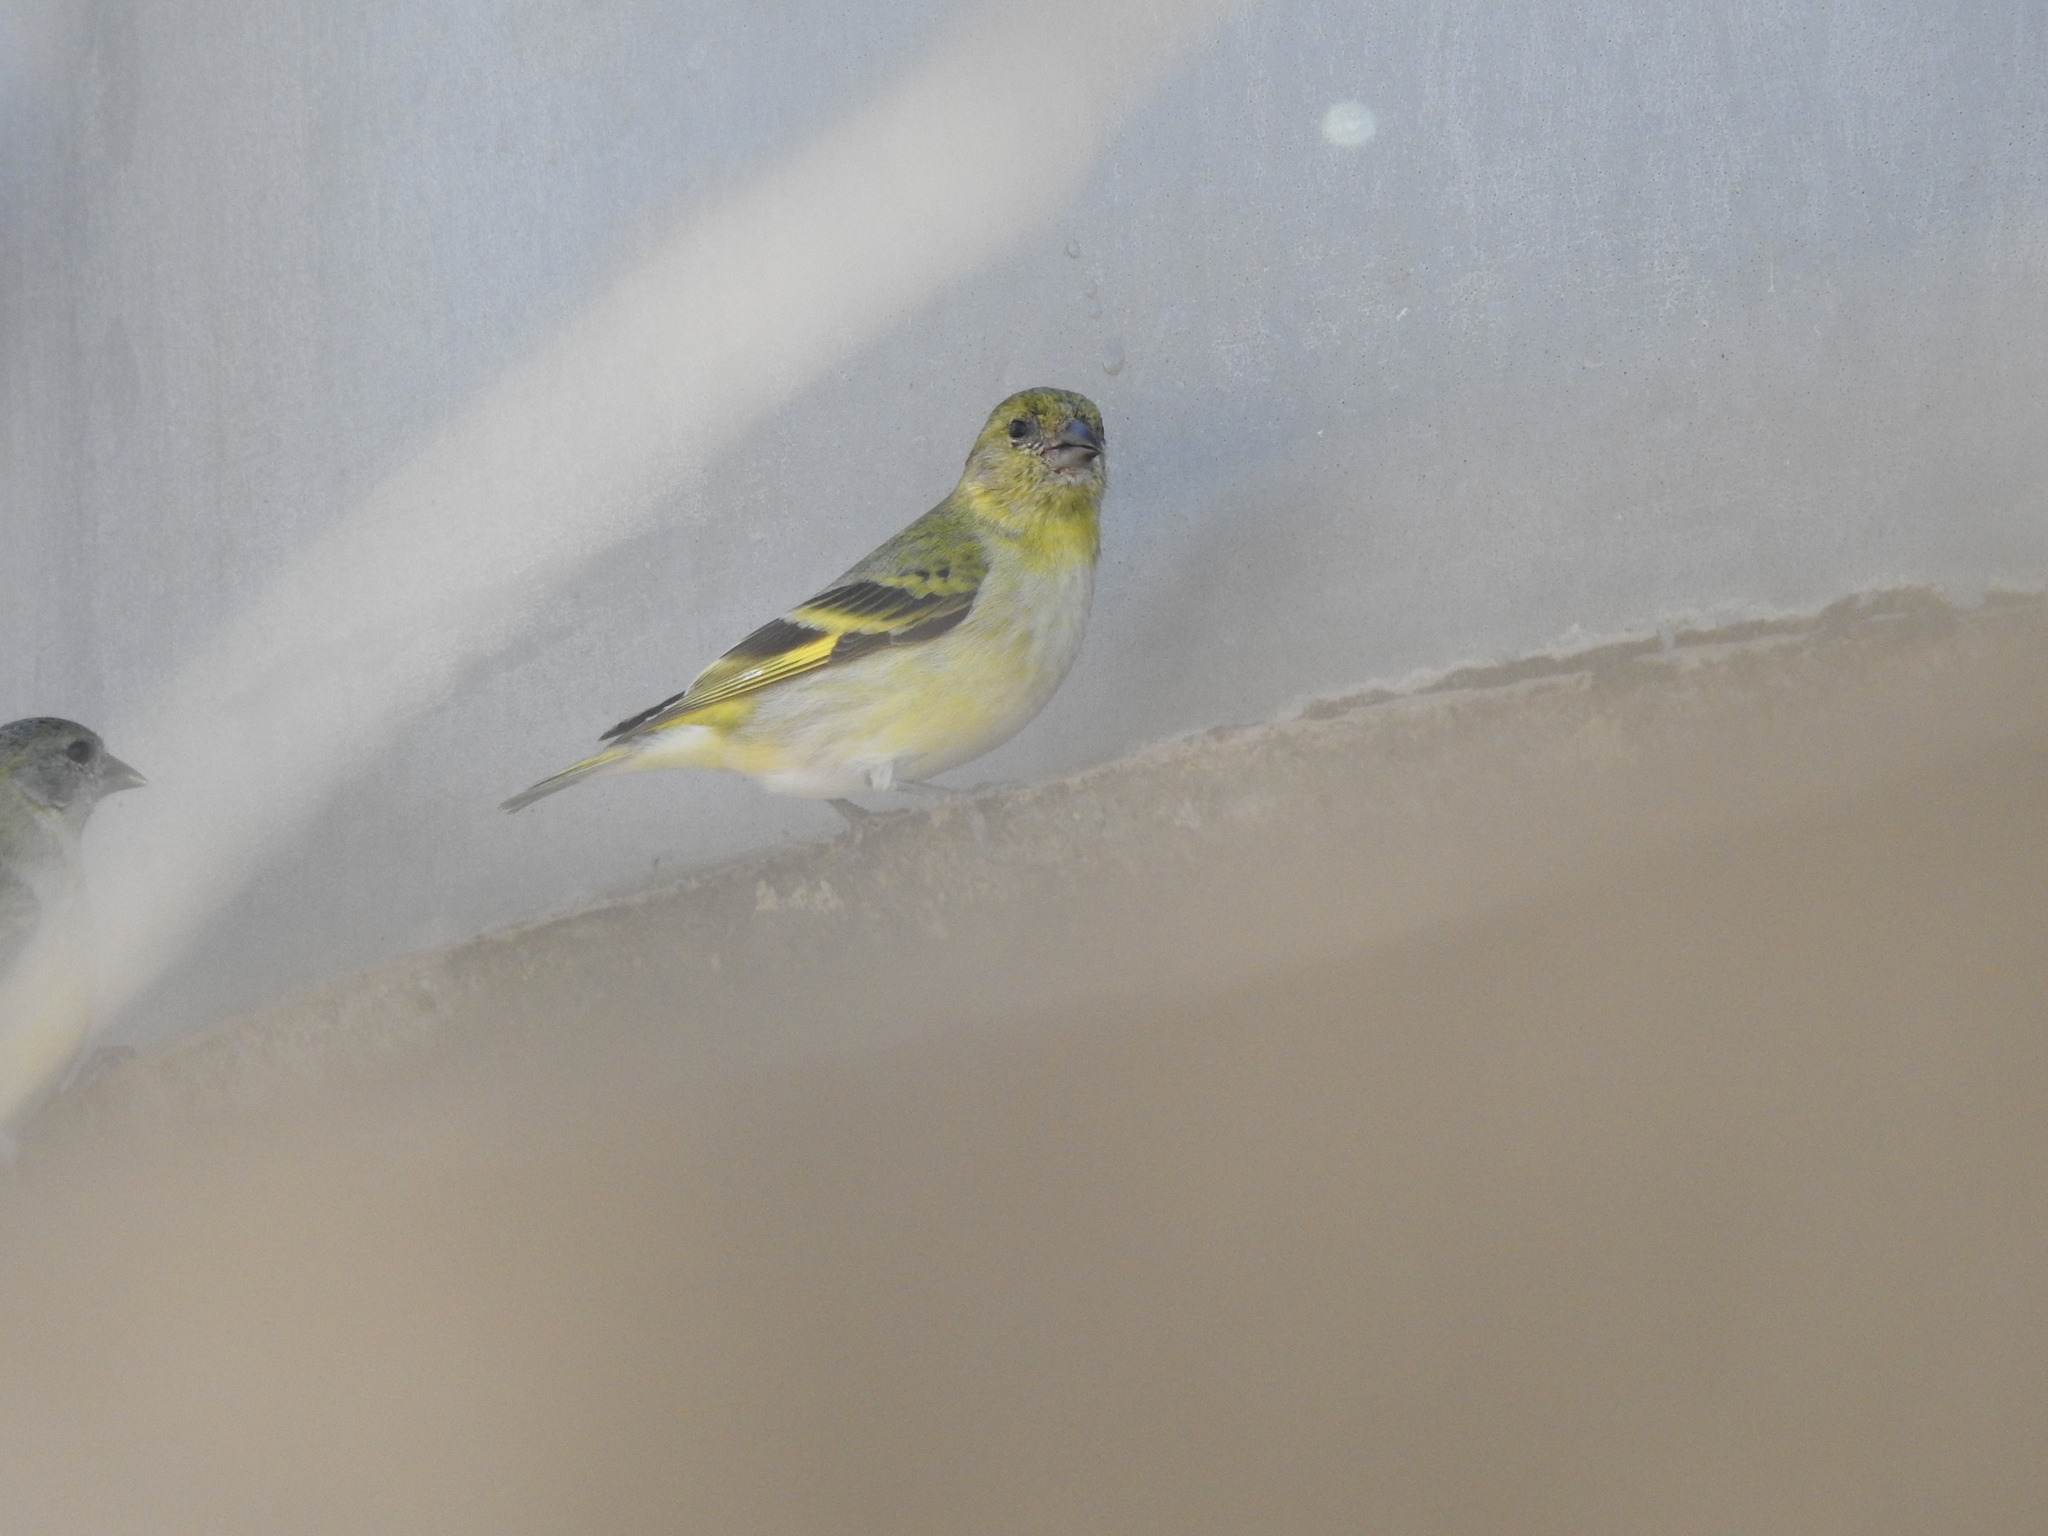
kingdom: Animalia
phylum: Chordata
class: Aves
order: Passeriformes
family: Fringillidae
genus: Spinus
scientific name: Spinus magellanicus
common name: Hooded siskin
